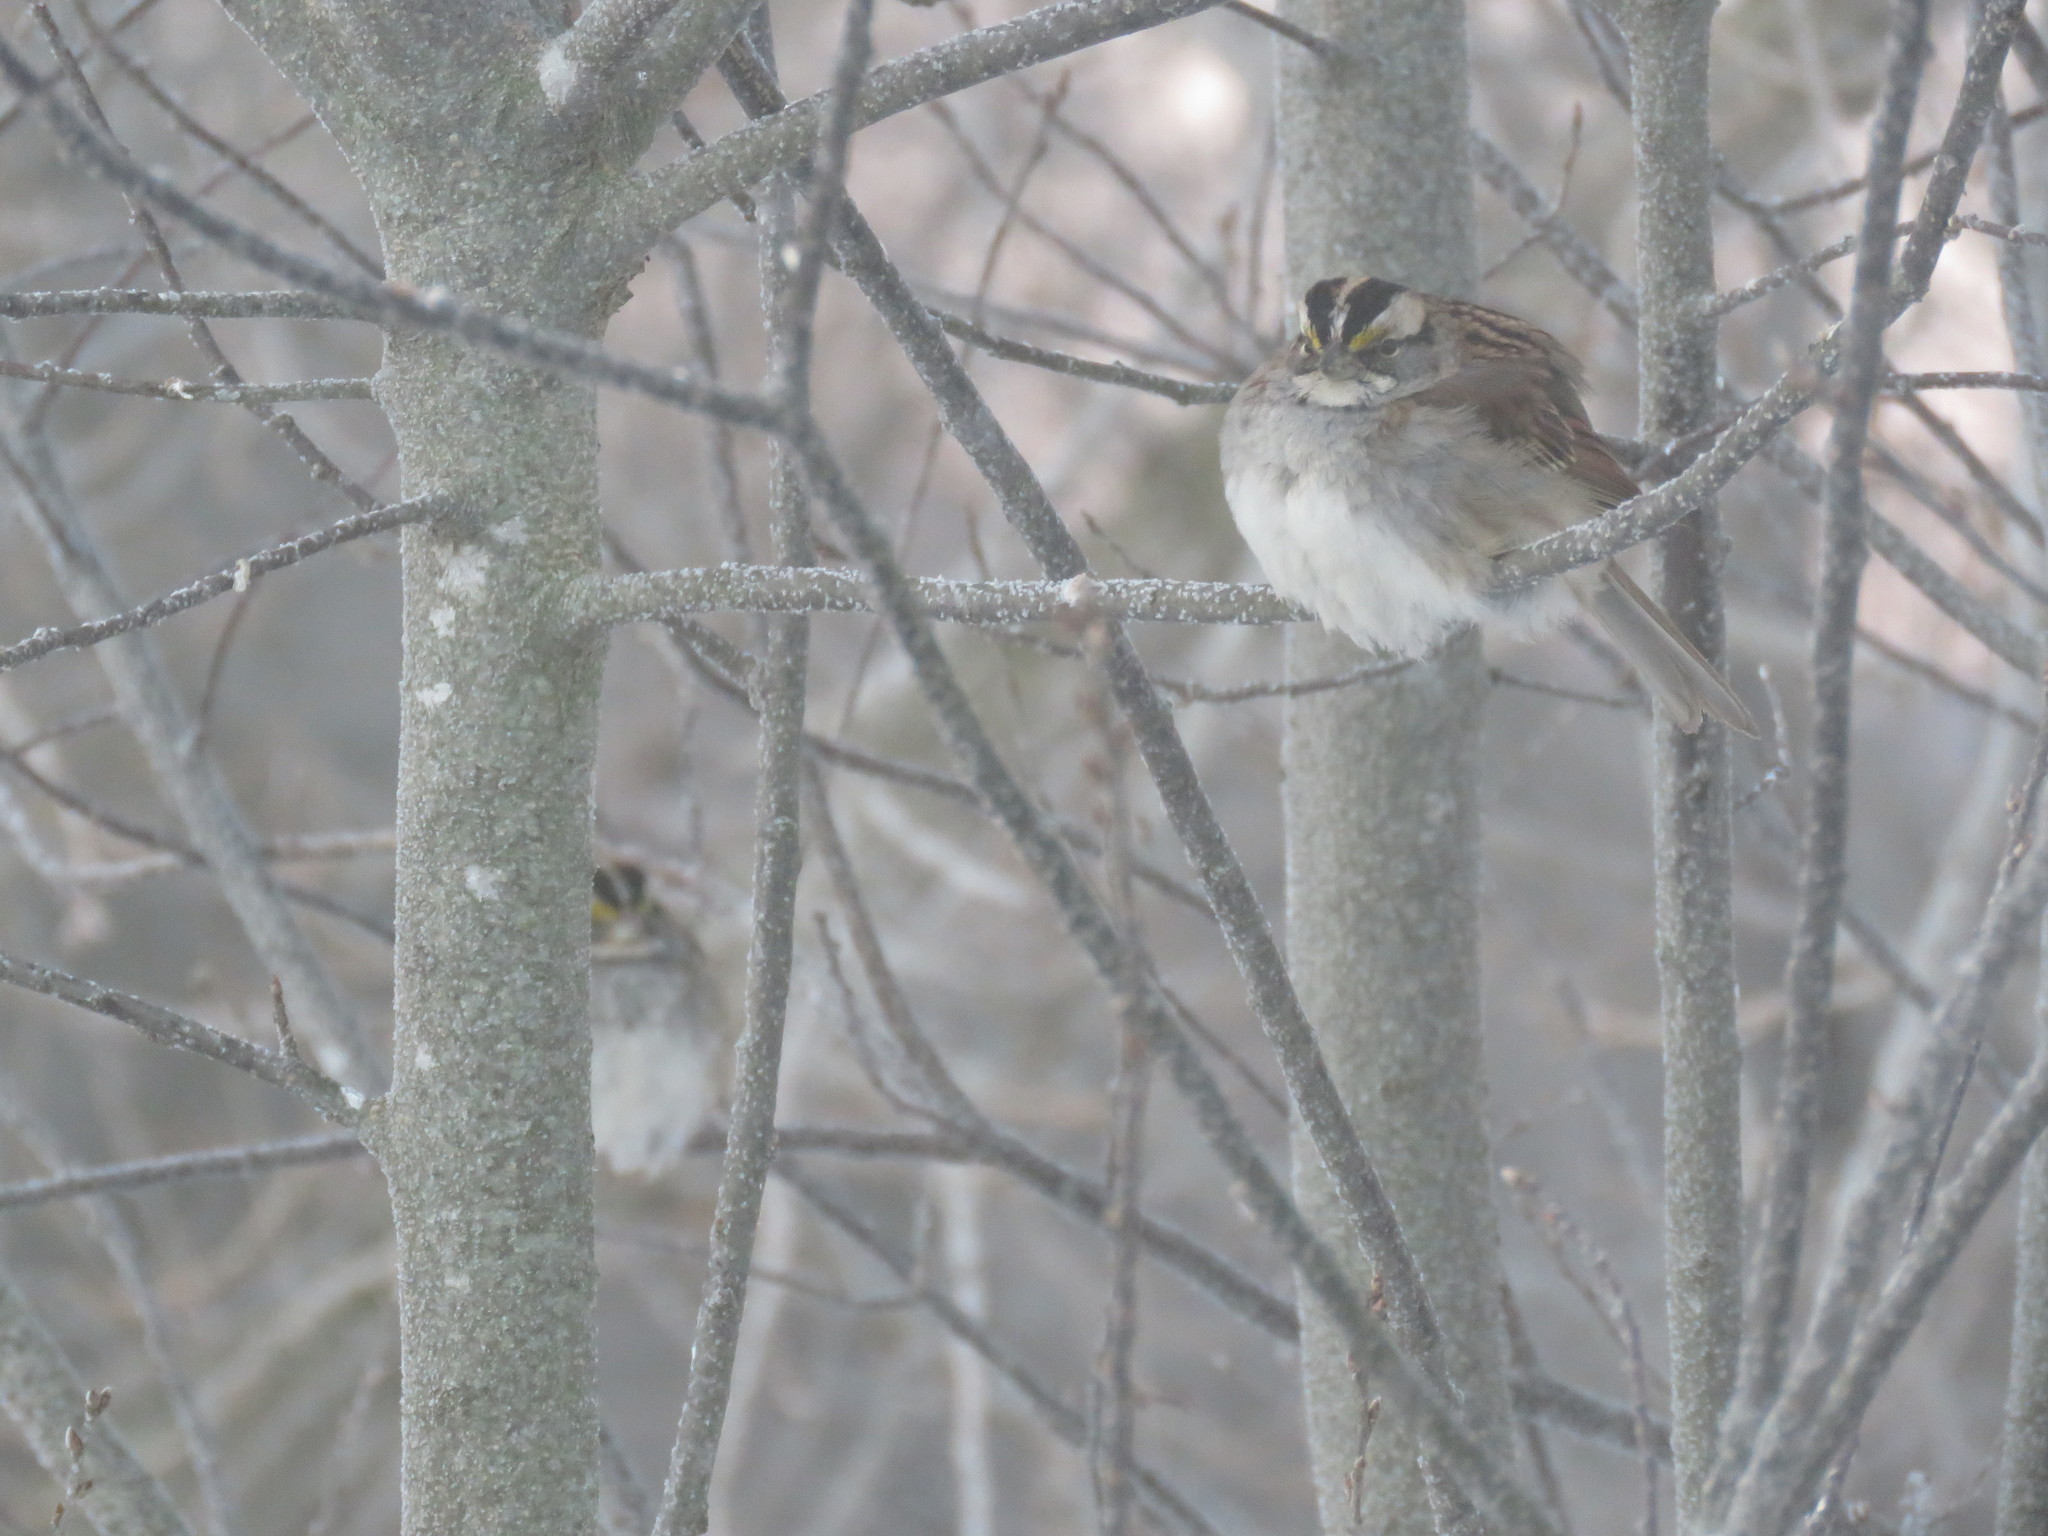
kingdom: Animalia
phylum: Chordata
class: Aves
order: Passeriformes
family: Passerellidae
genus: Zonotrichia
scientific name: Zonotrichia albicollis
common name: White-throated sparrow
